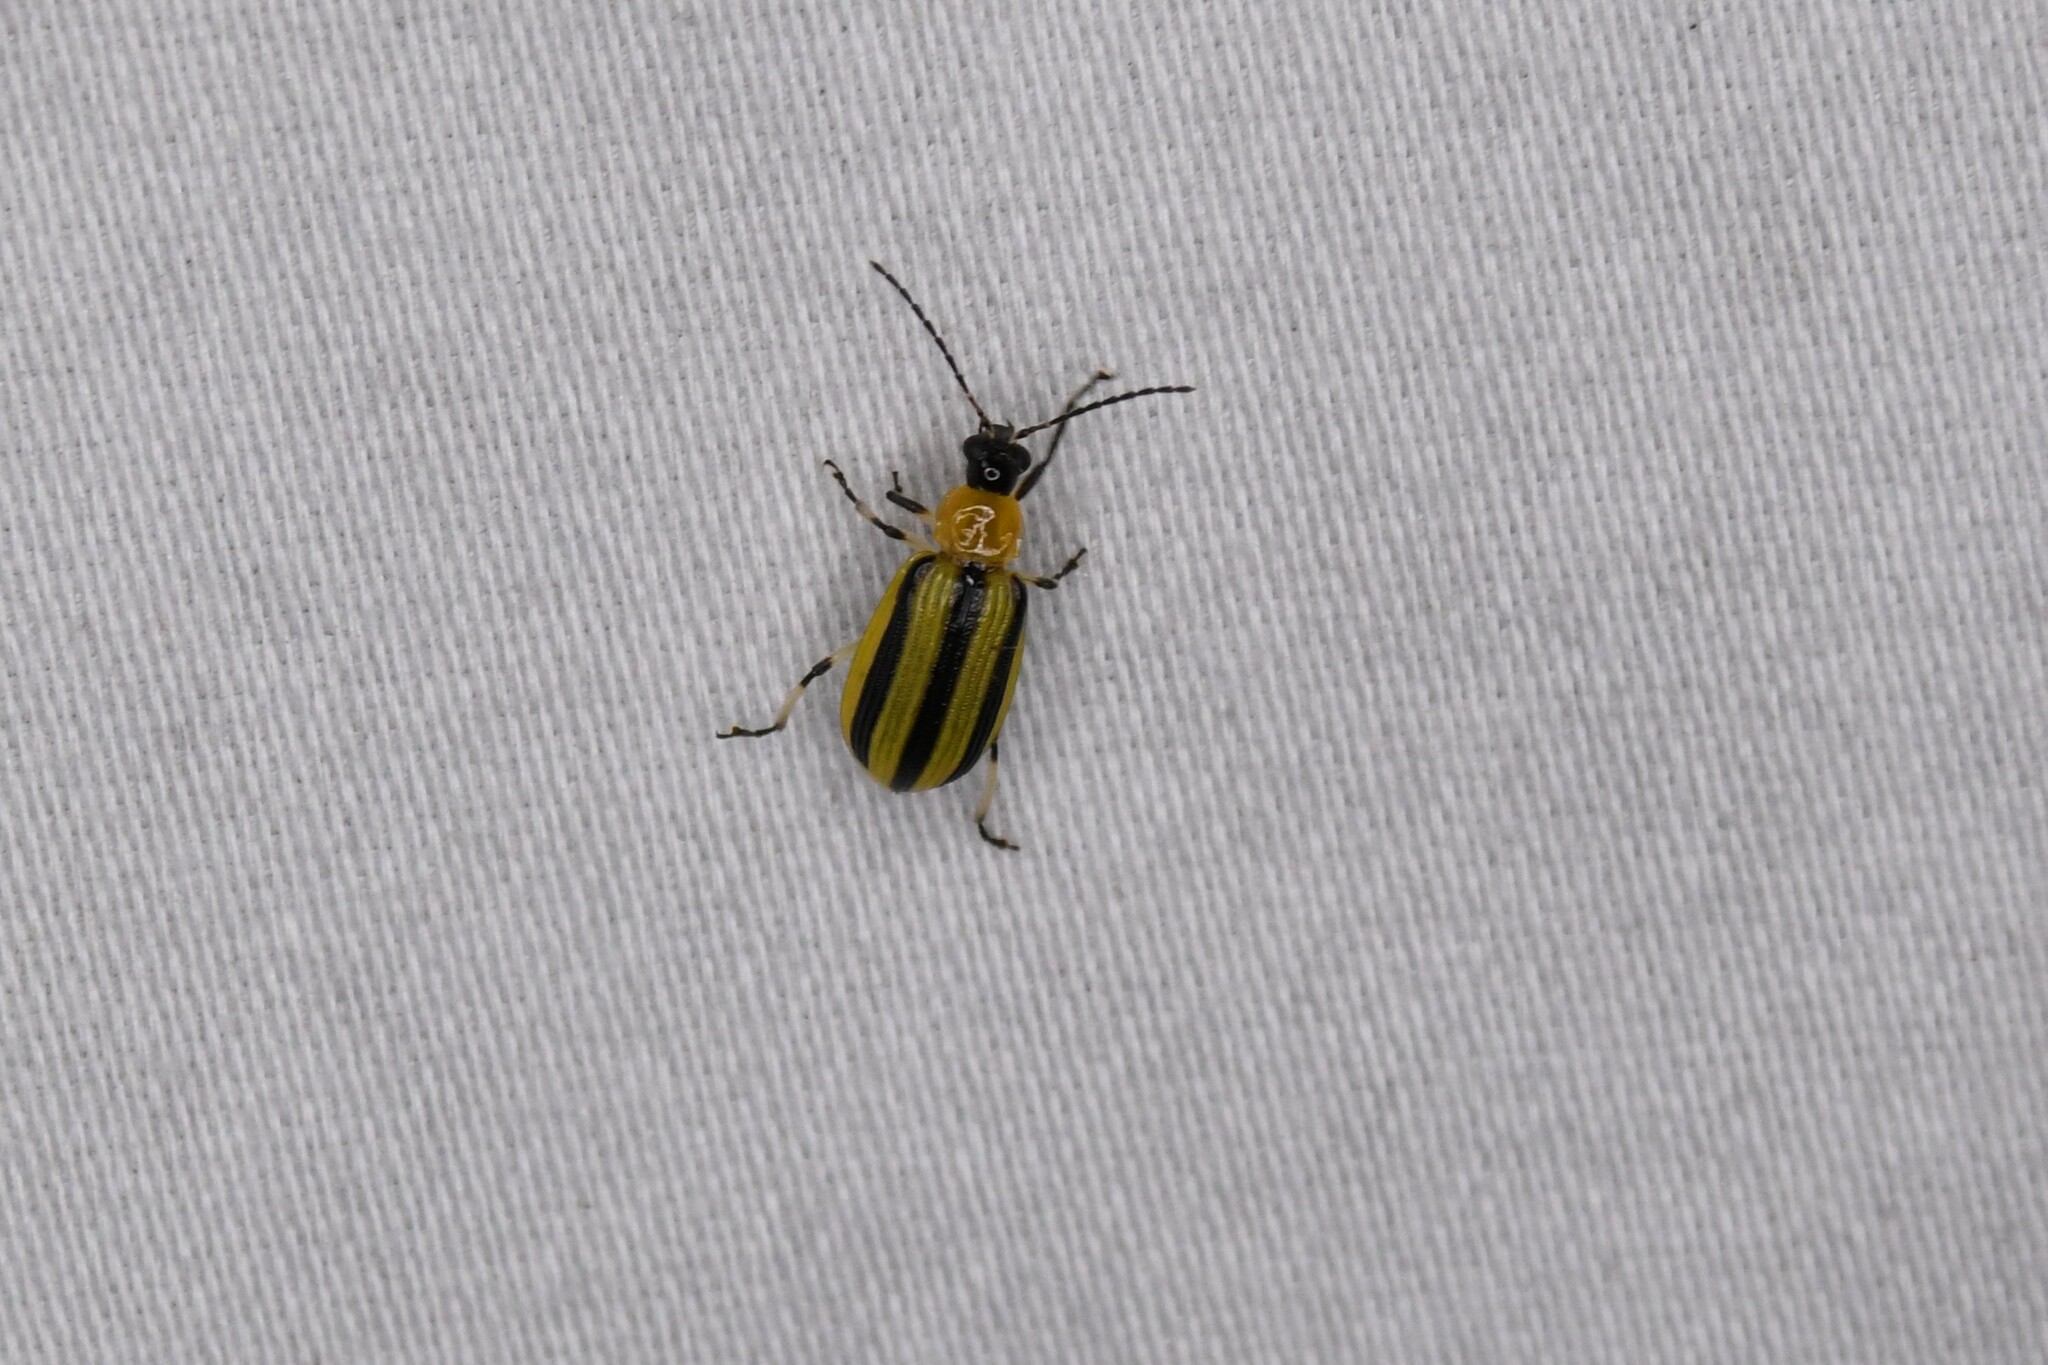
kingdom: Animalia
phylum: Arthropoda
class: Insecta
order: Coleoptera
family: Chrysomelidae
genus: Acalymma
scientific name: Acalymma vittatum
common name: Striped cucumber beetle
